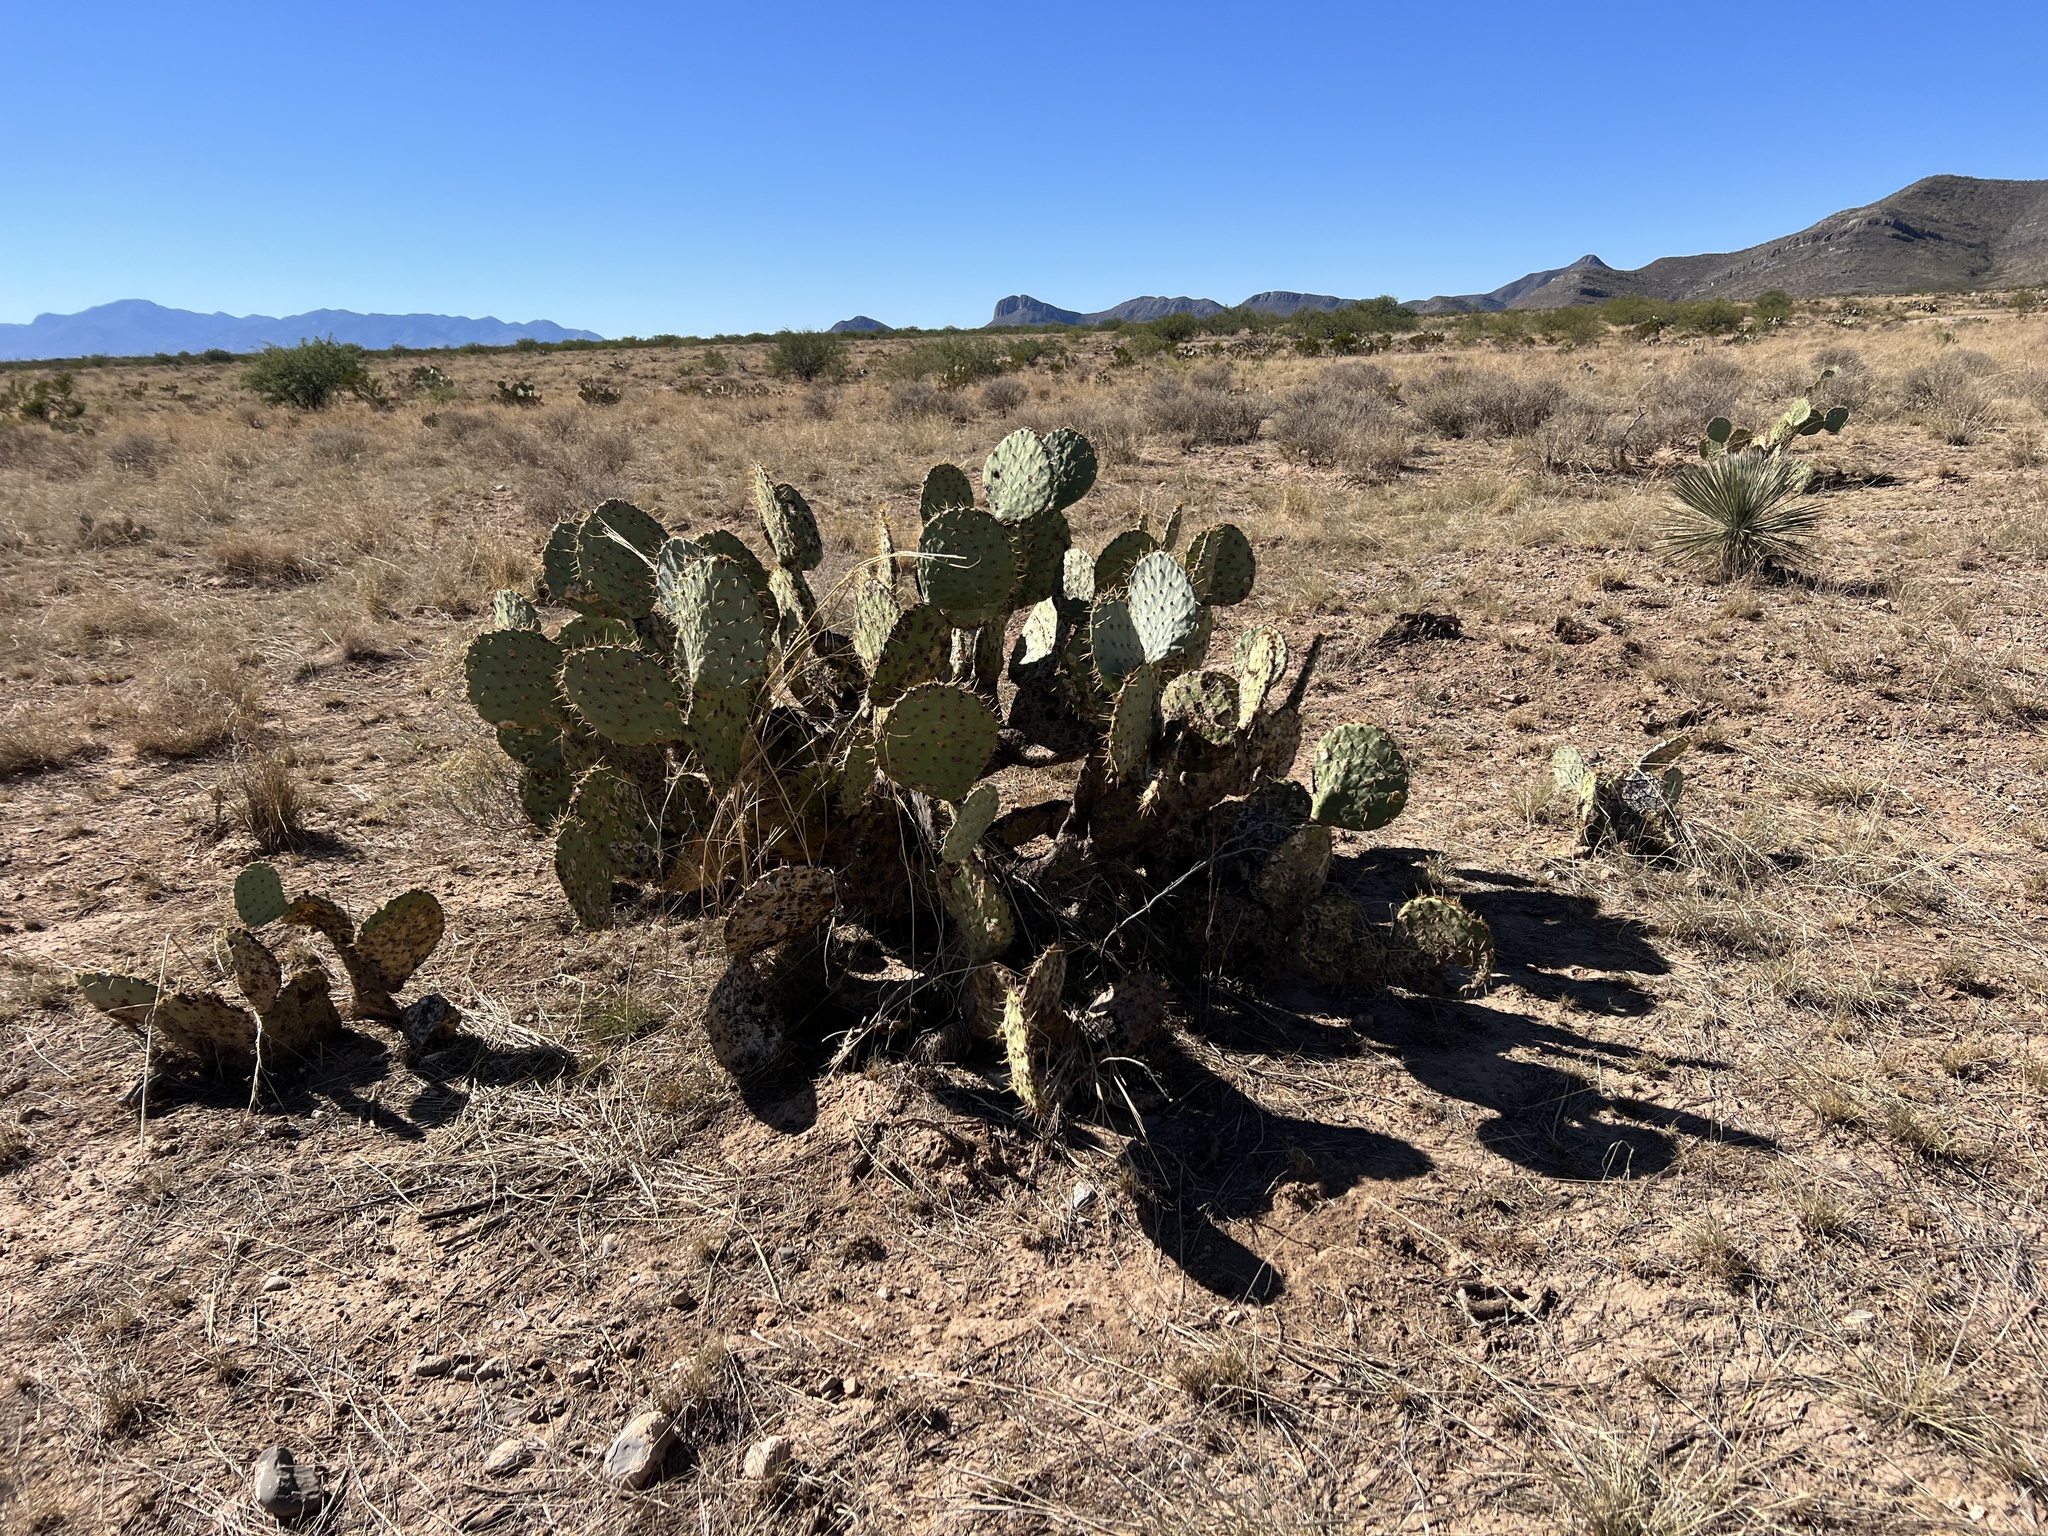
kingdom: Plantae
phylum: Tracheophyta
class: Magnoliopsida
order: Caryophyllales
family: Cactaceae
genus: Opuntia
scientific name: Opuntia engelmannii
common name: Cactus-apple
